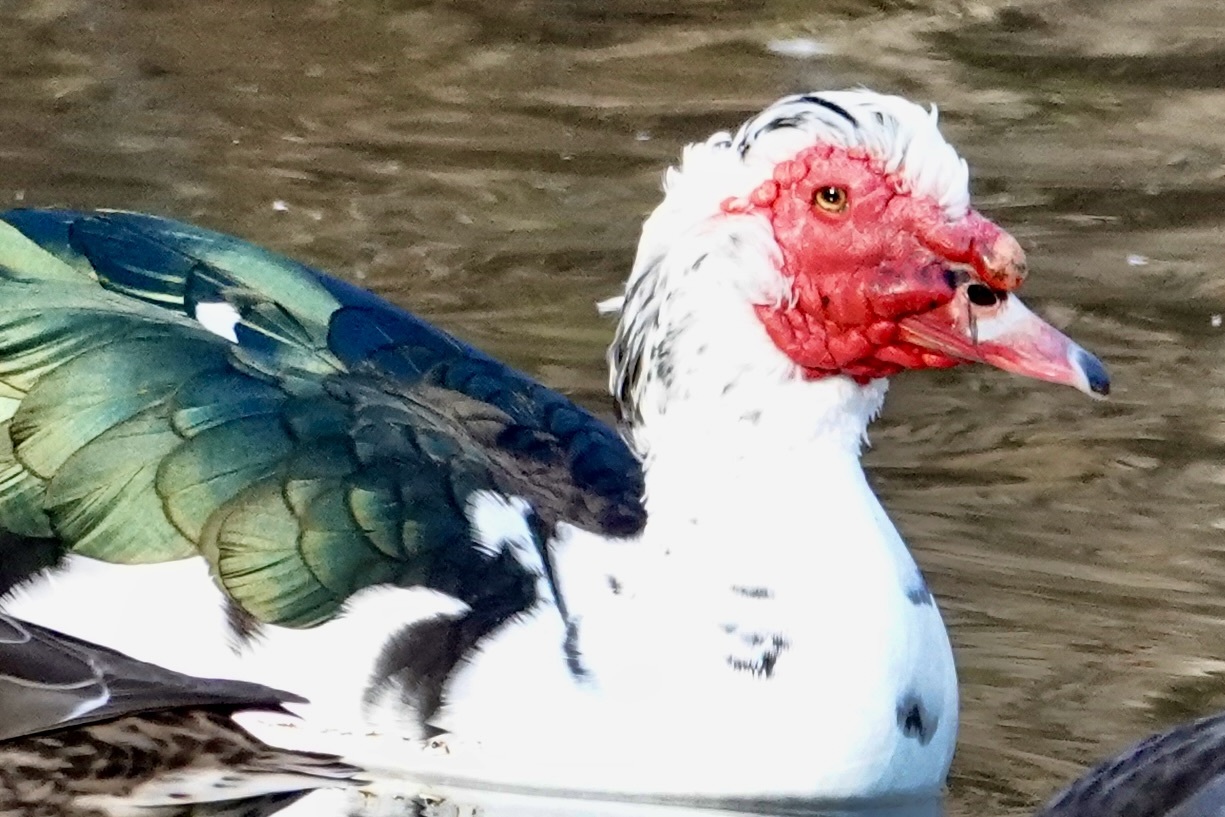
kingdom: Animalia
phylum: Chordata
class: Aves
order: Anseriformes
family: Anatidae
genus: Cairina
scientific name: Cairina moschata
